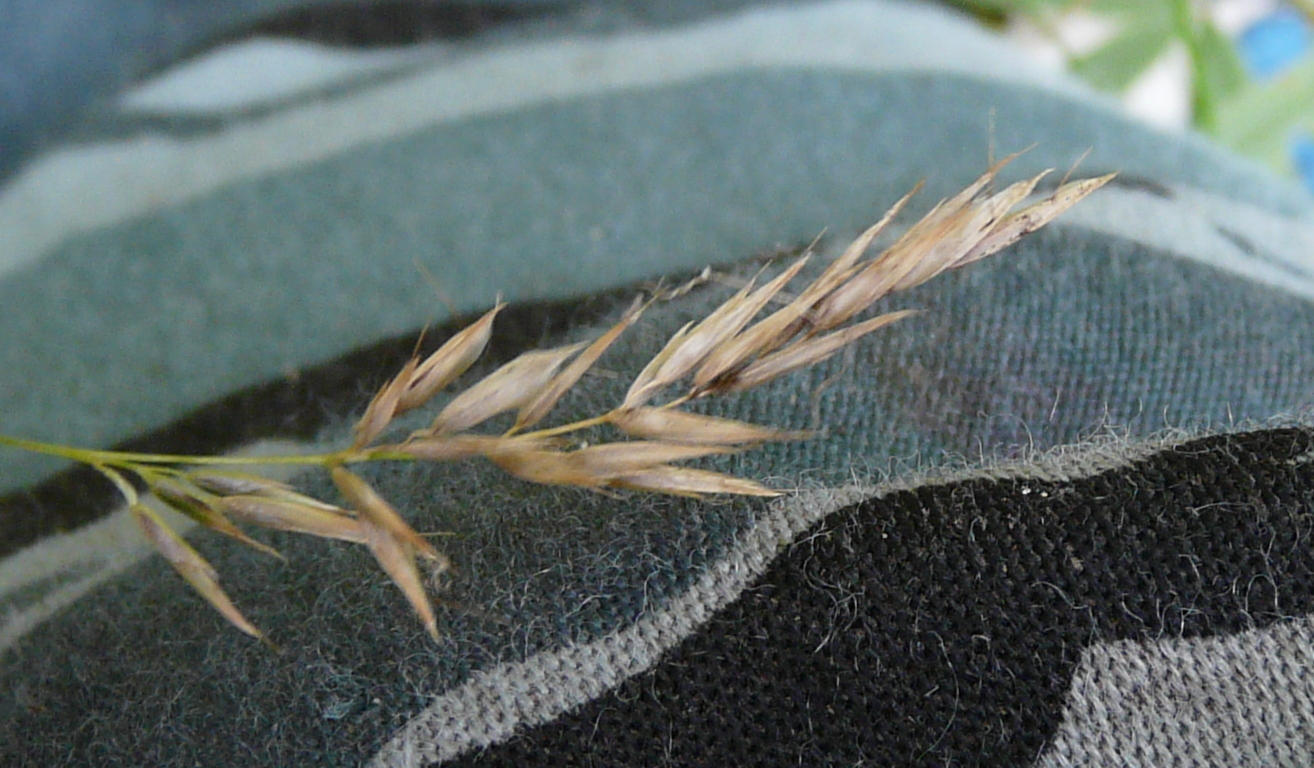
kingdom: Plantae
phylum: Tracheophyta
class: Liliopsida
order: Poales
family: Poaceae
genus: Anthoxanthum
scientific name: Anthoxanthum odoratum
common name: Sweet vernalgrass
